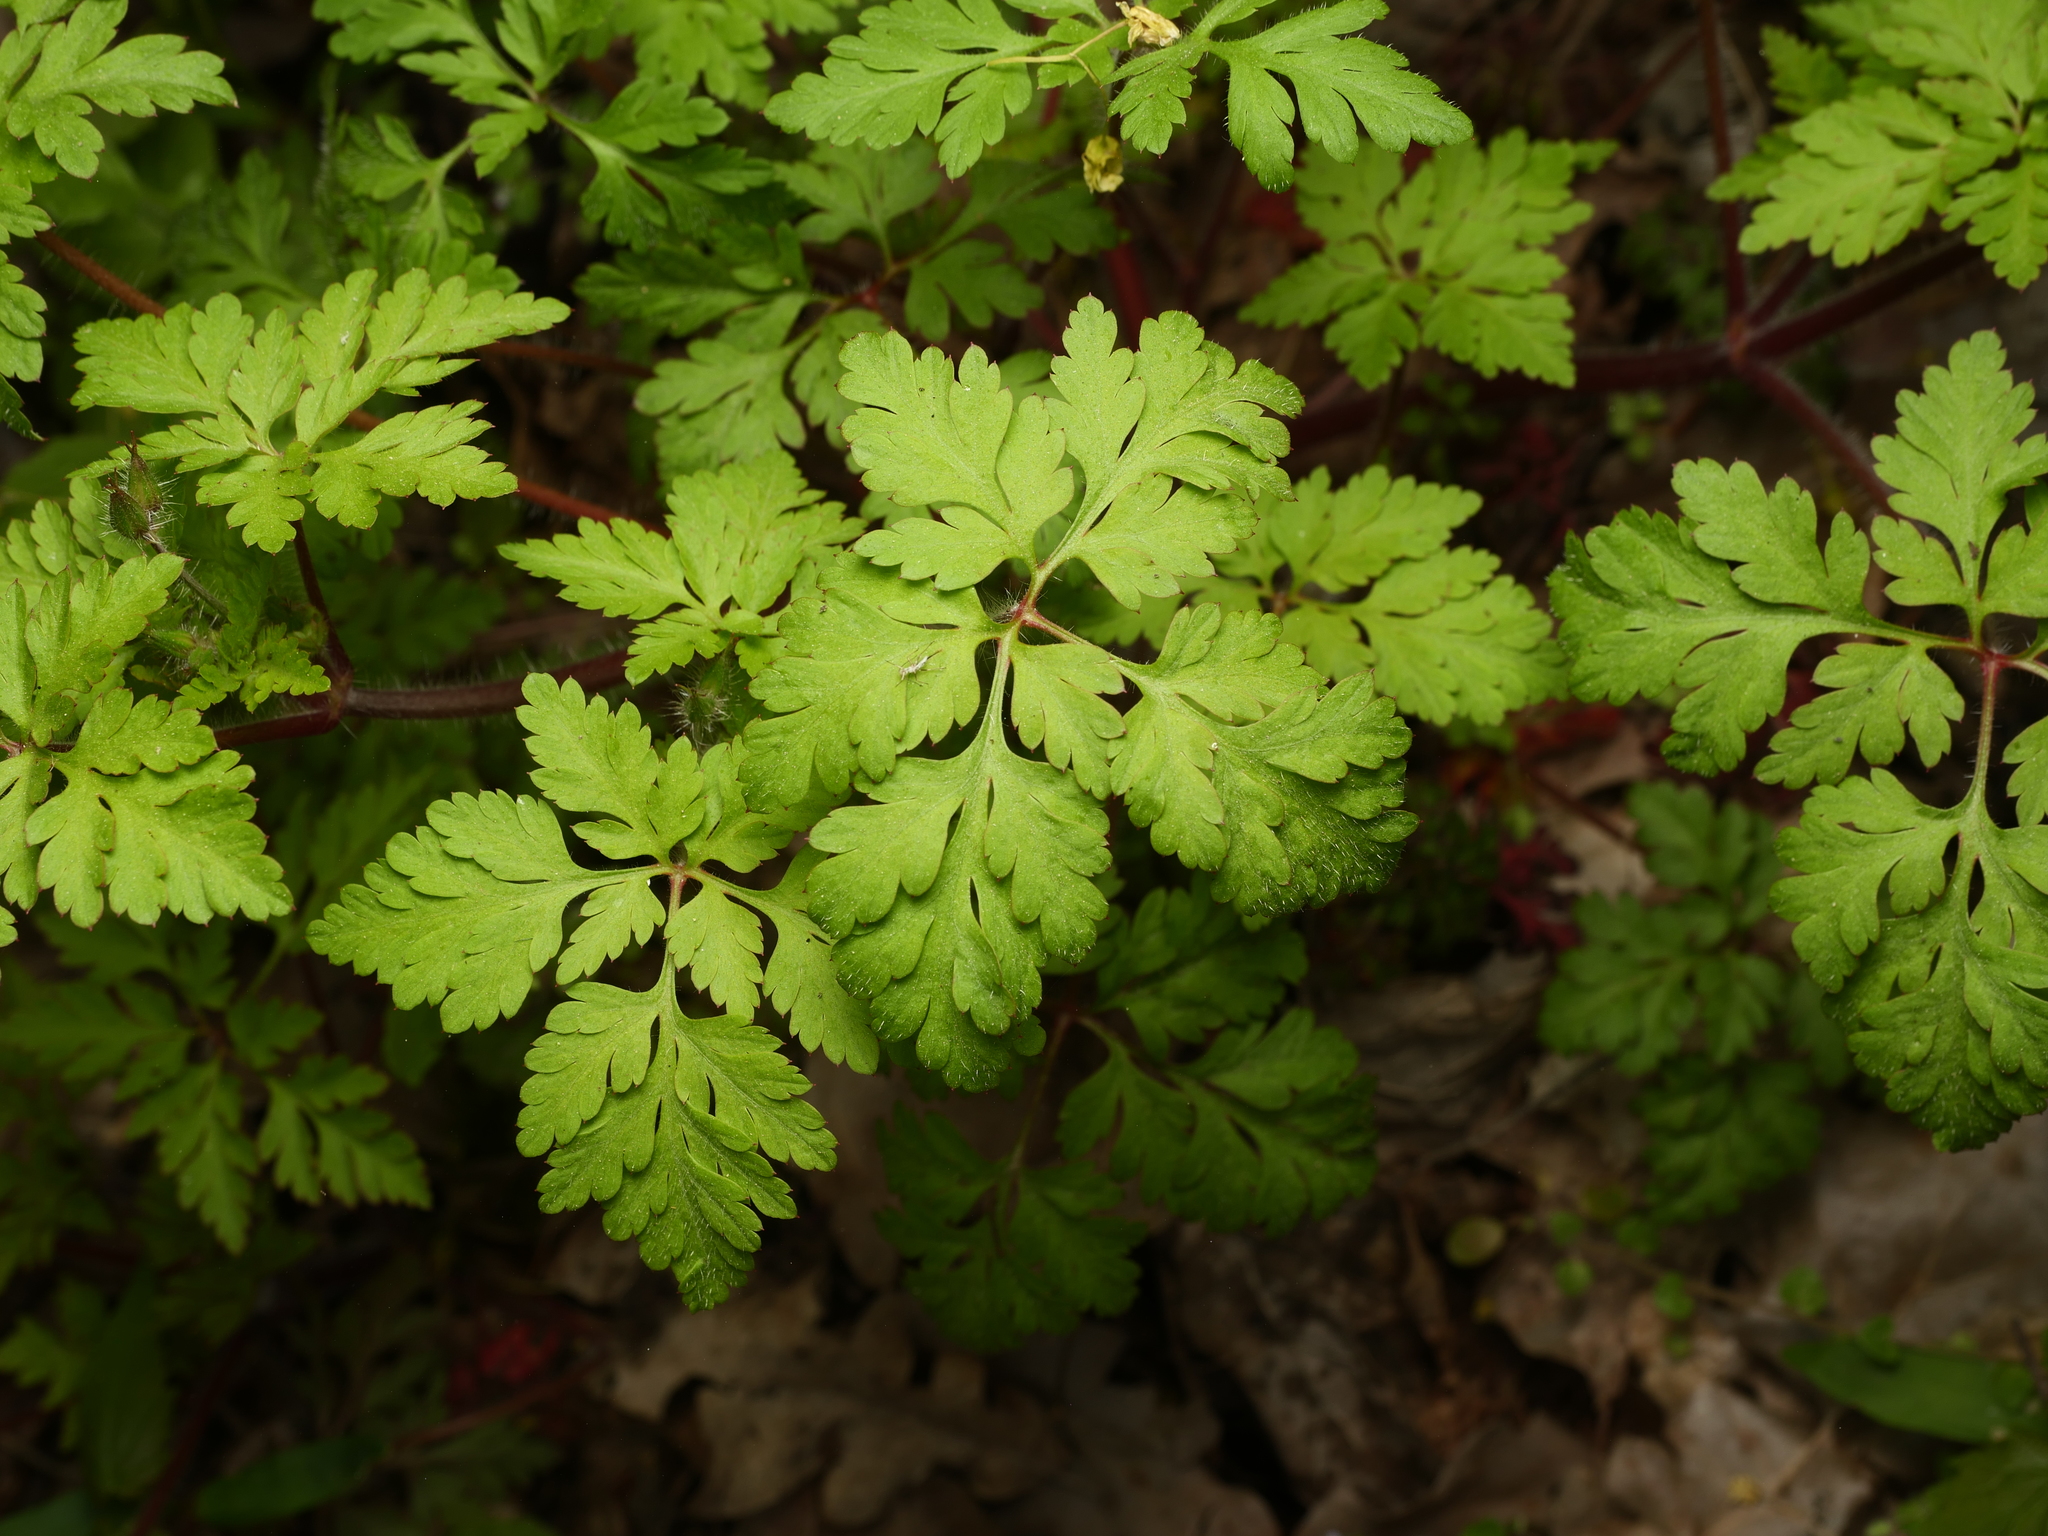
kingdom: Plantae
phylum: Tracheophyta
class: Magnoliopsida
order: Geraniales
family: Geraniaceae
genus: Geranium
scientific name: Geranium robertianum
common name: Herb-robert
